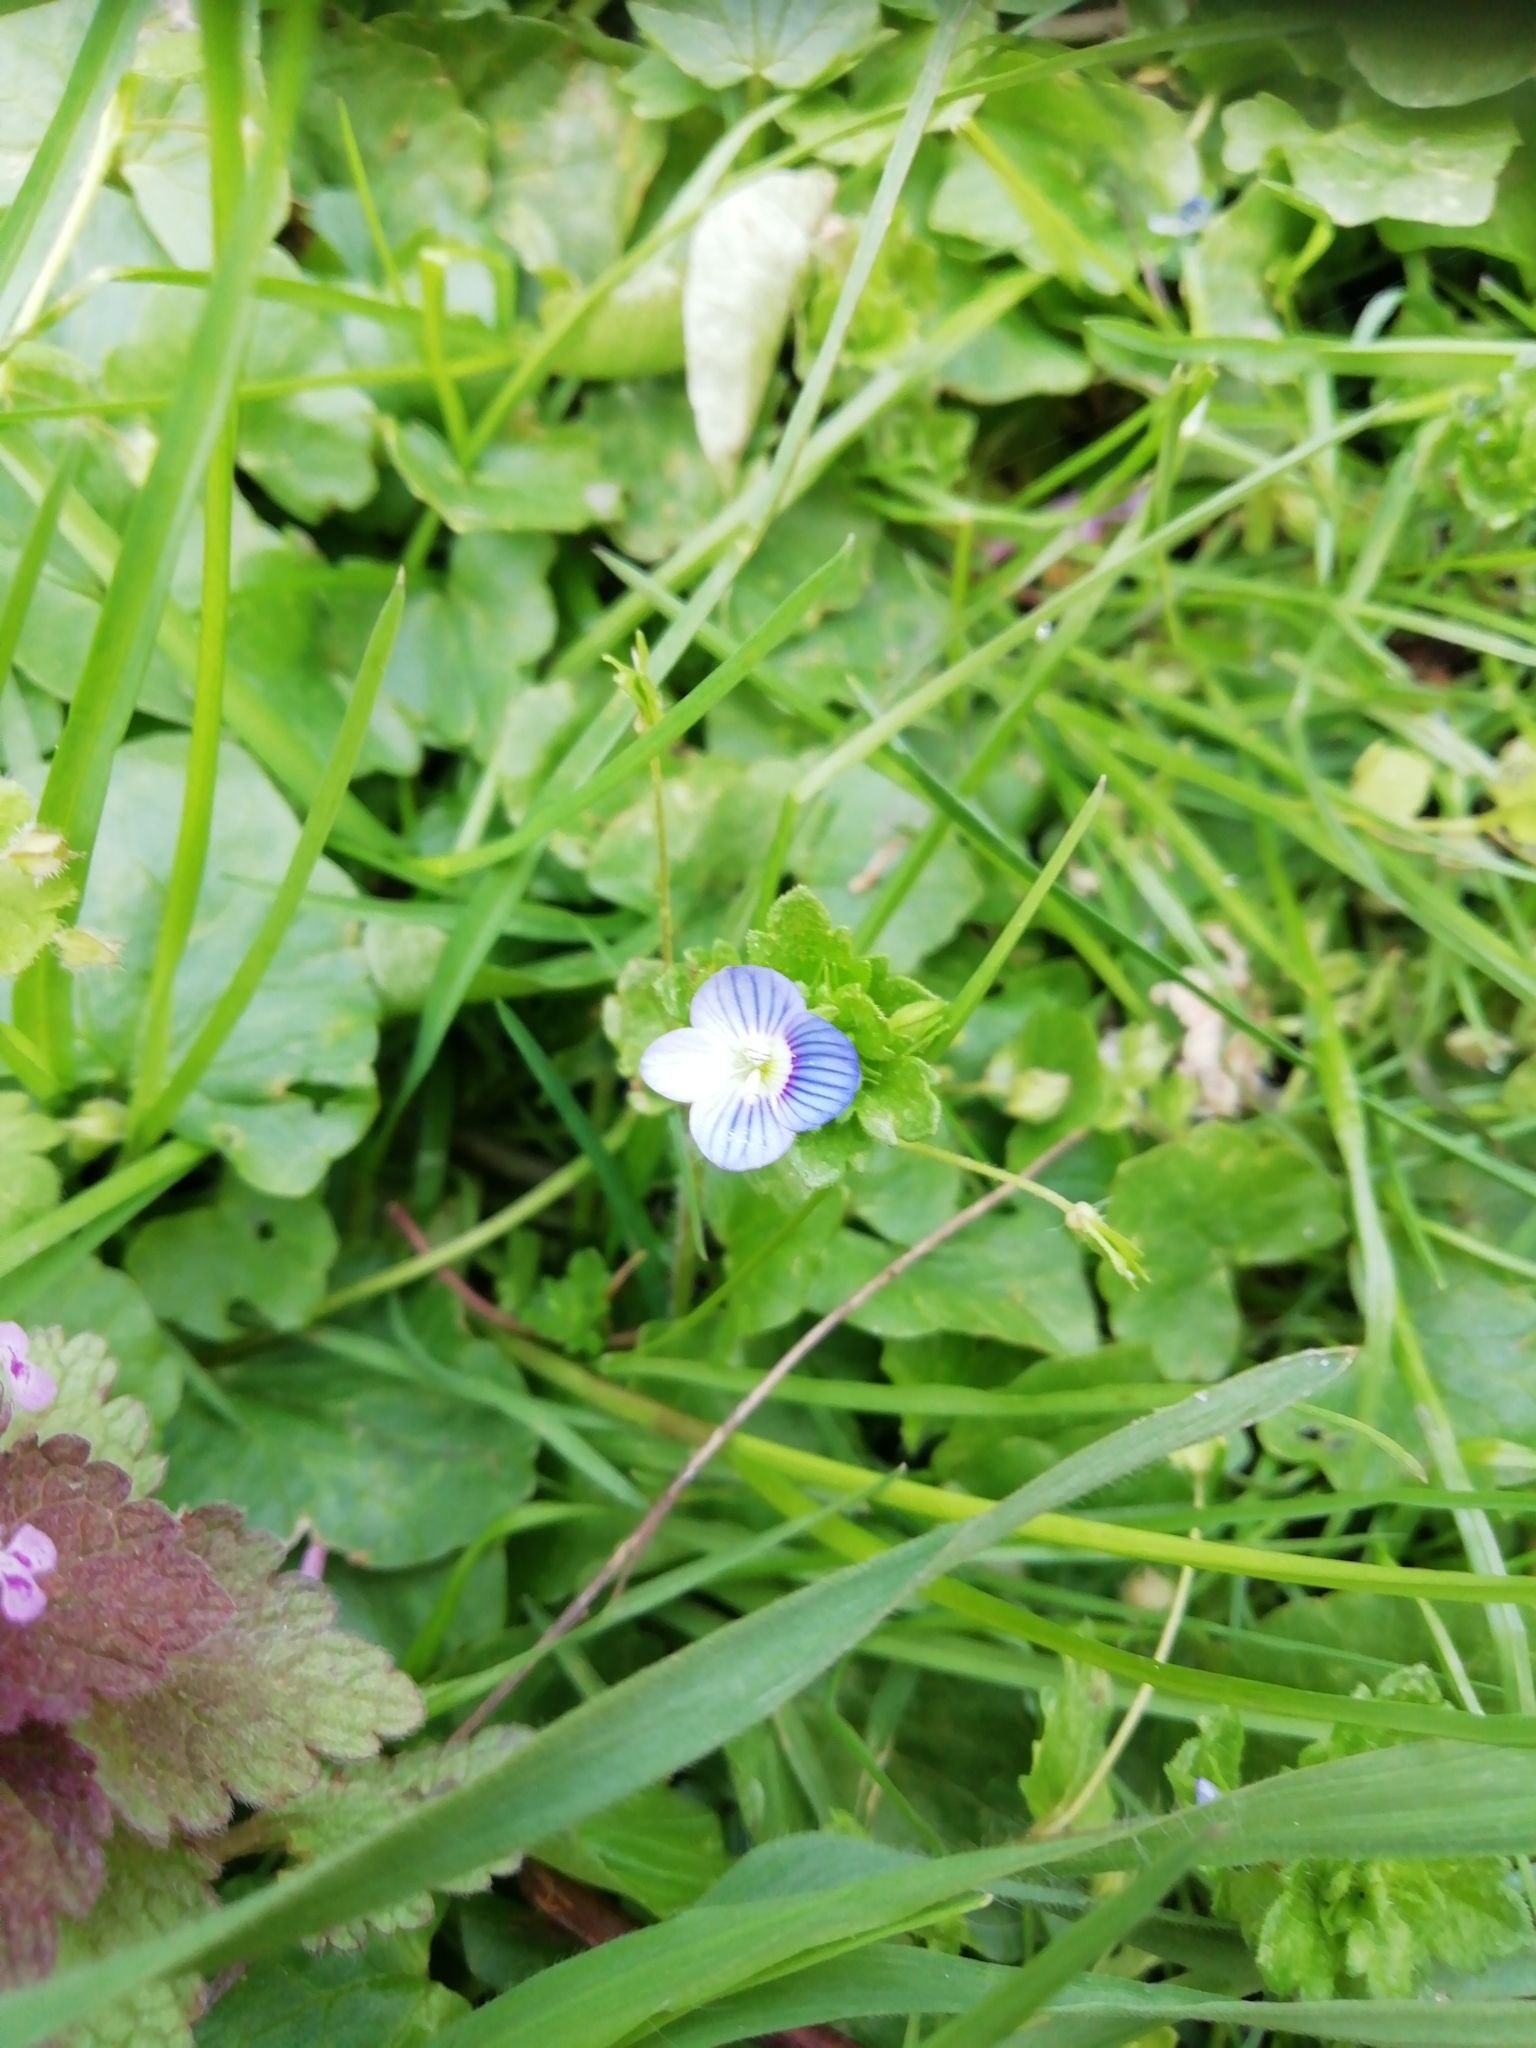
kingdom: Plantae
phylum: Tracheophyta
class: Magnoliopsida
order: Lamiales
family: Plantaginaceae
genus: Veronica
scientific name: Veronica persica
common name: Common field-speedwell
